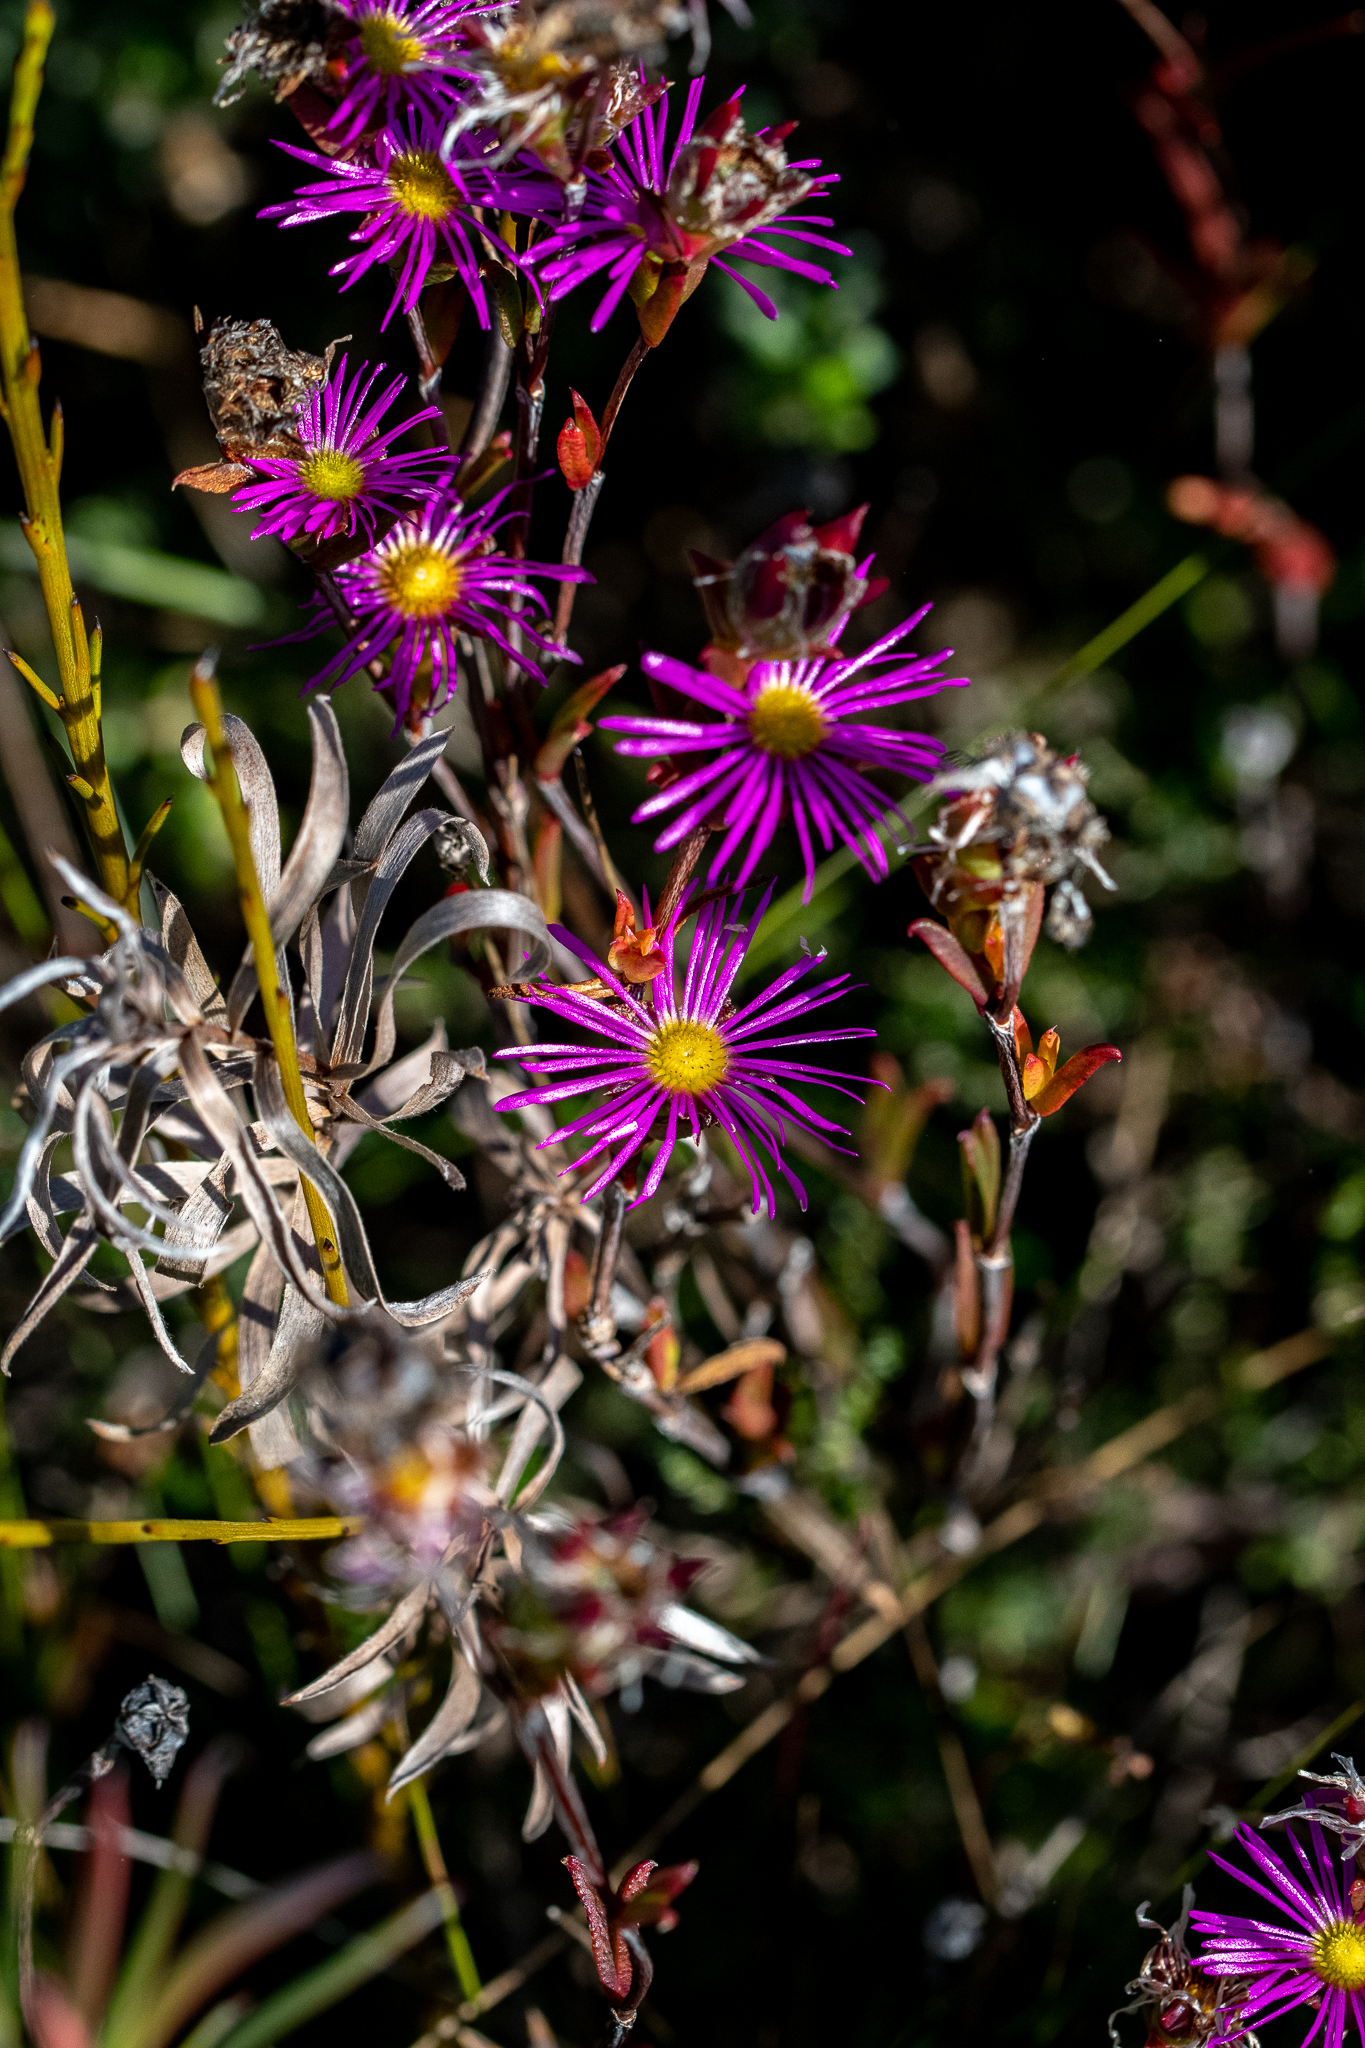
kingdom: Plantae
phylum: Tracheophyta
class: Magnoliopsida
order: Caryophyllales
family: Aizoaceae
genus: Erepsia
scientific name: Erepsia anceps
